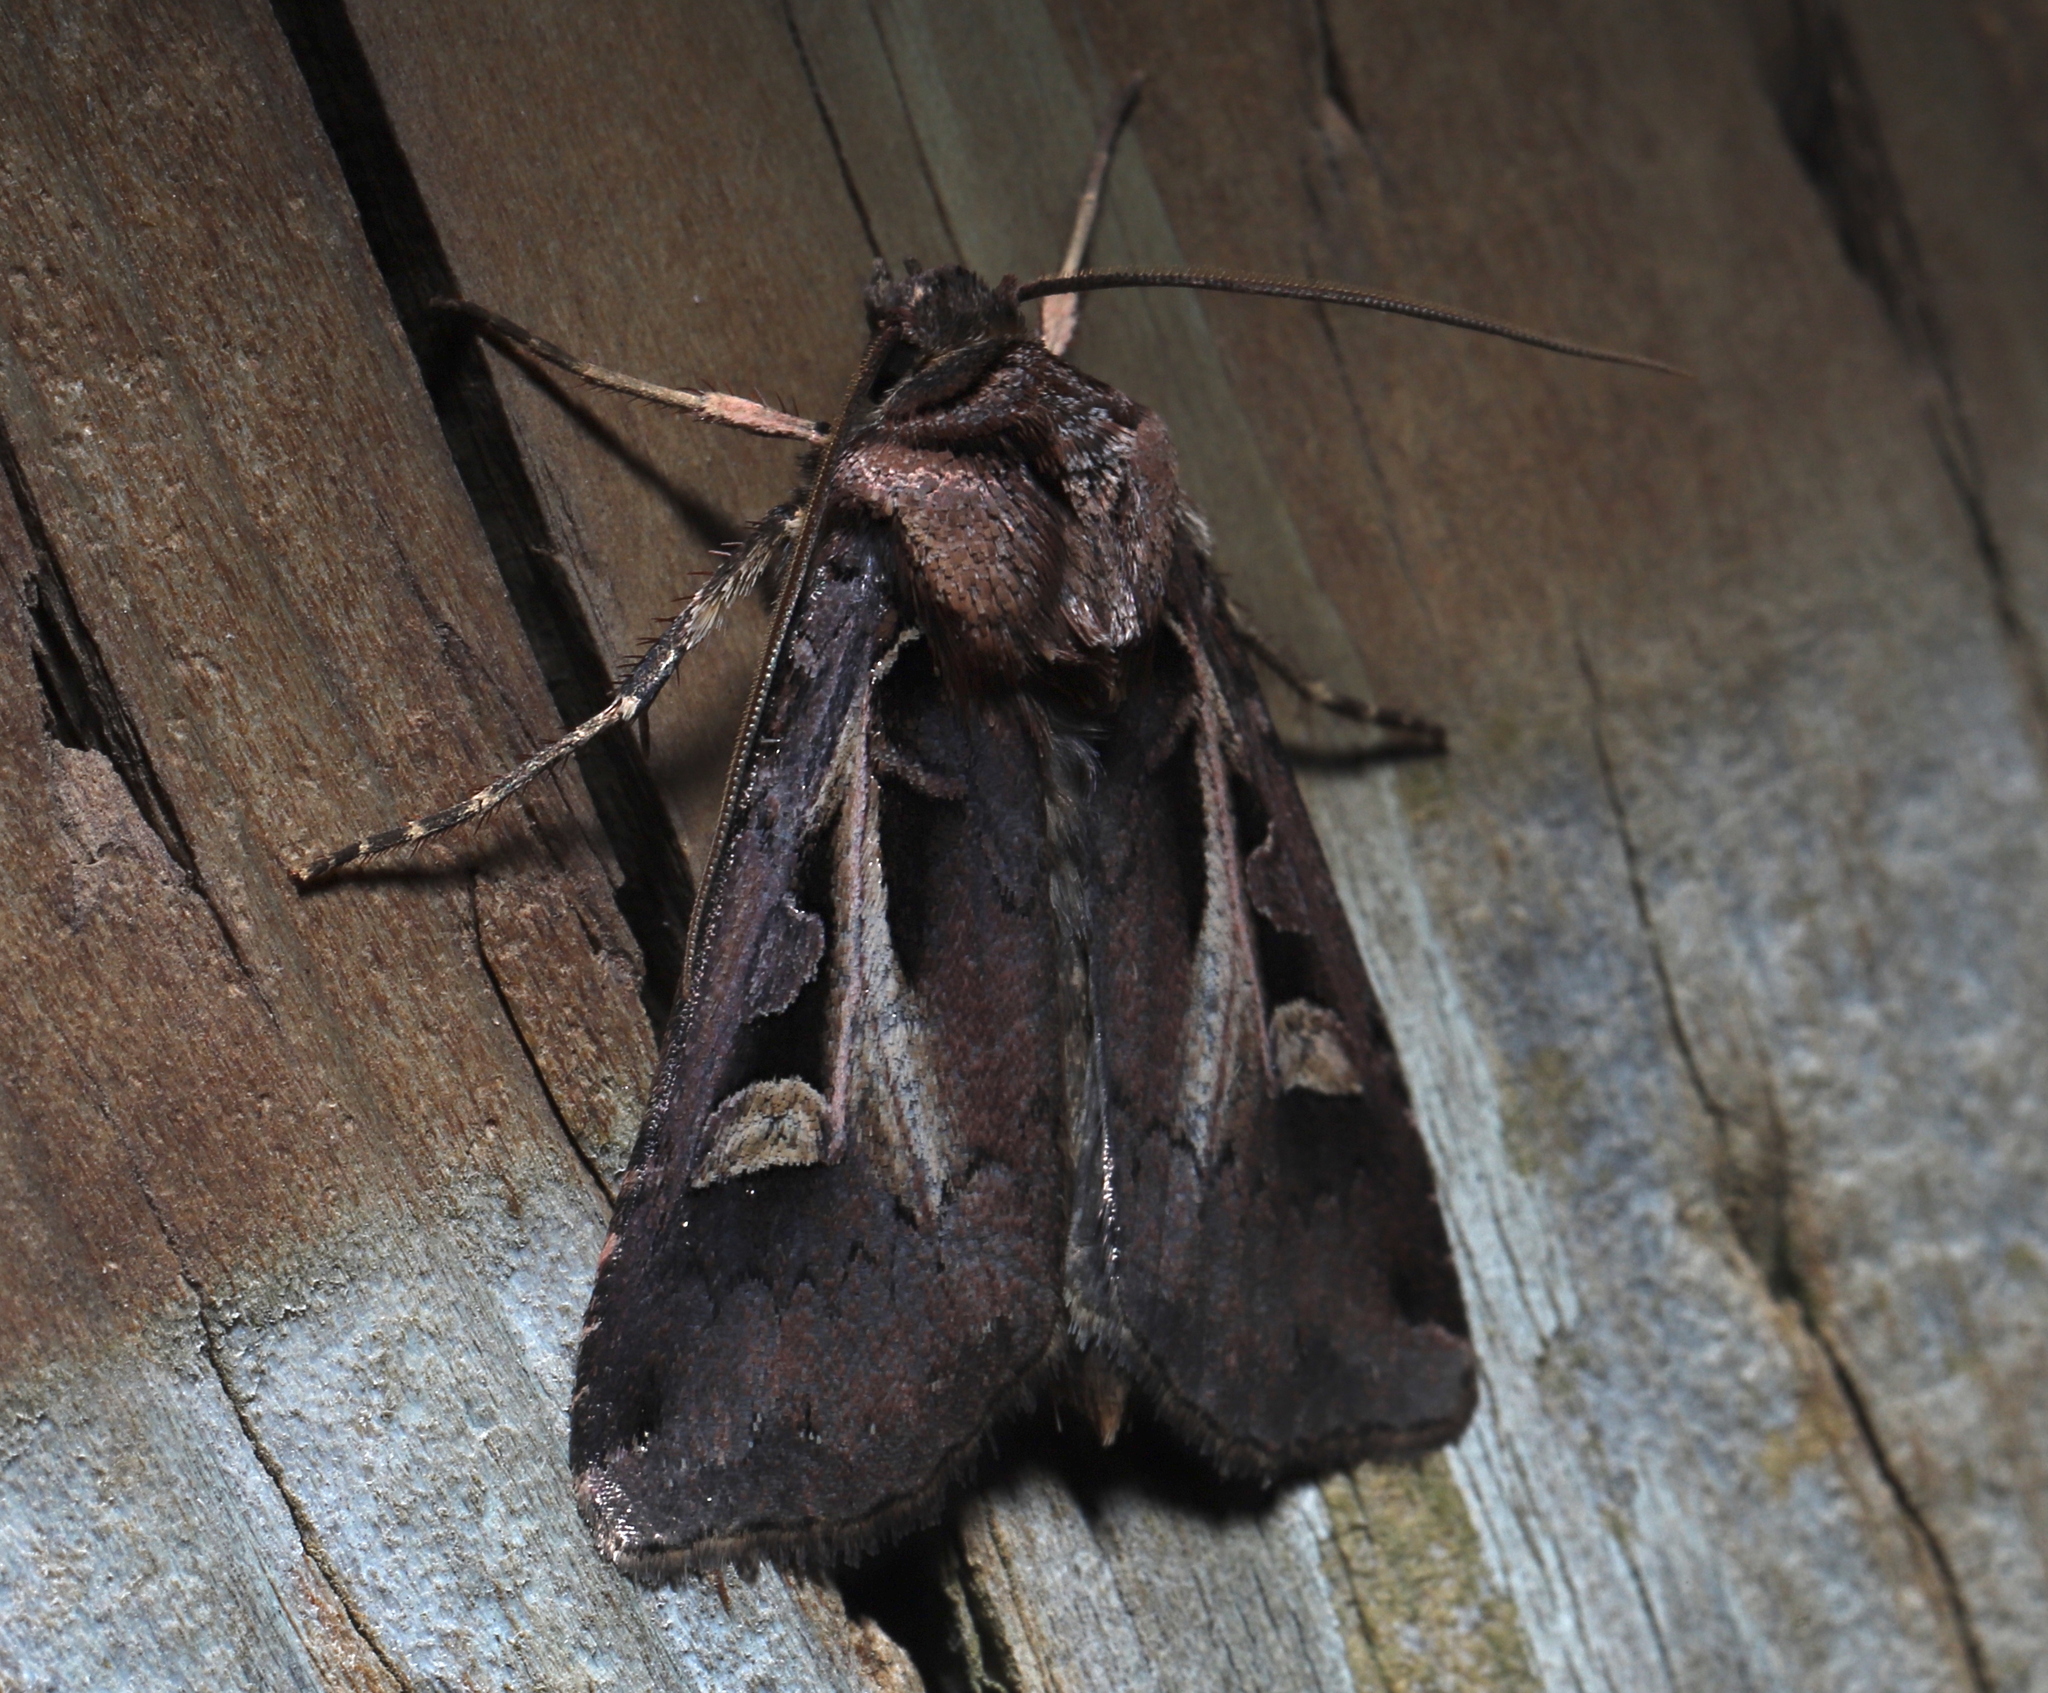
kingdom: Animalia
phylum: Arthropoda
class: Insecta
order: Lepidoptera
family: Noctuidae
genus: Feltia
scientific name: Feltia herilis
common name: Master's dart
